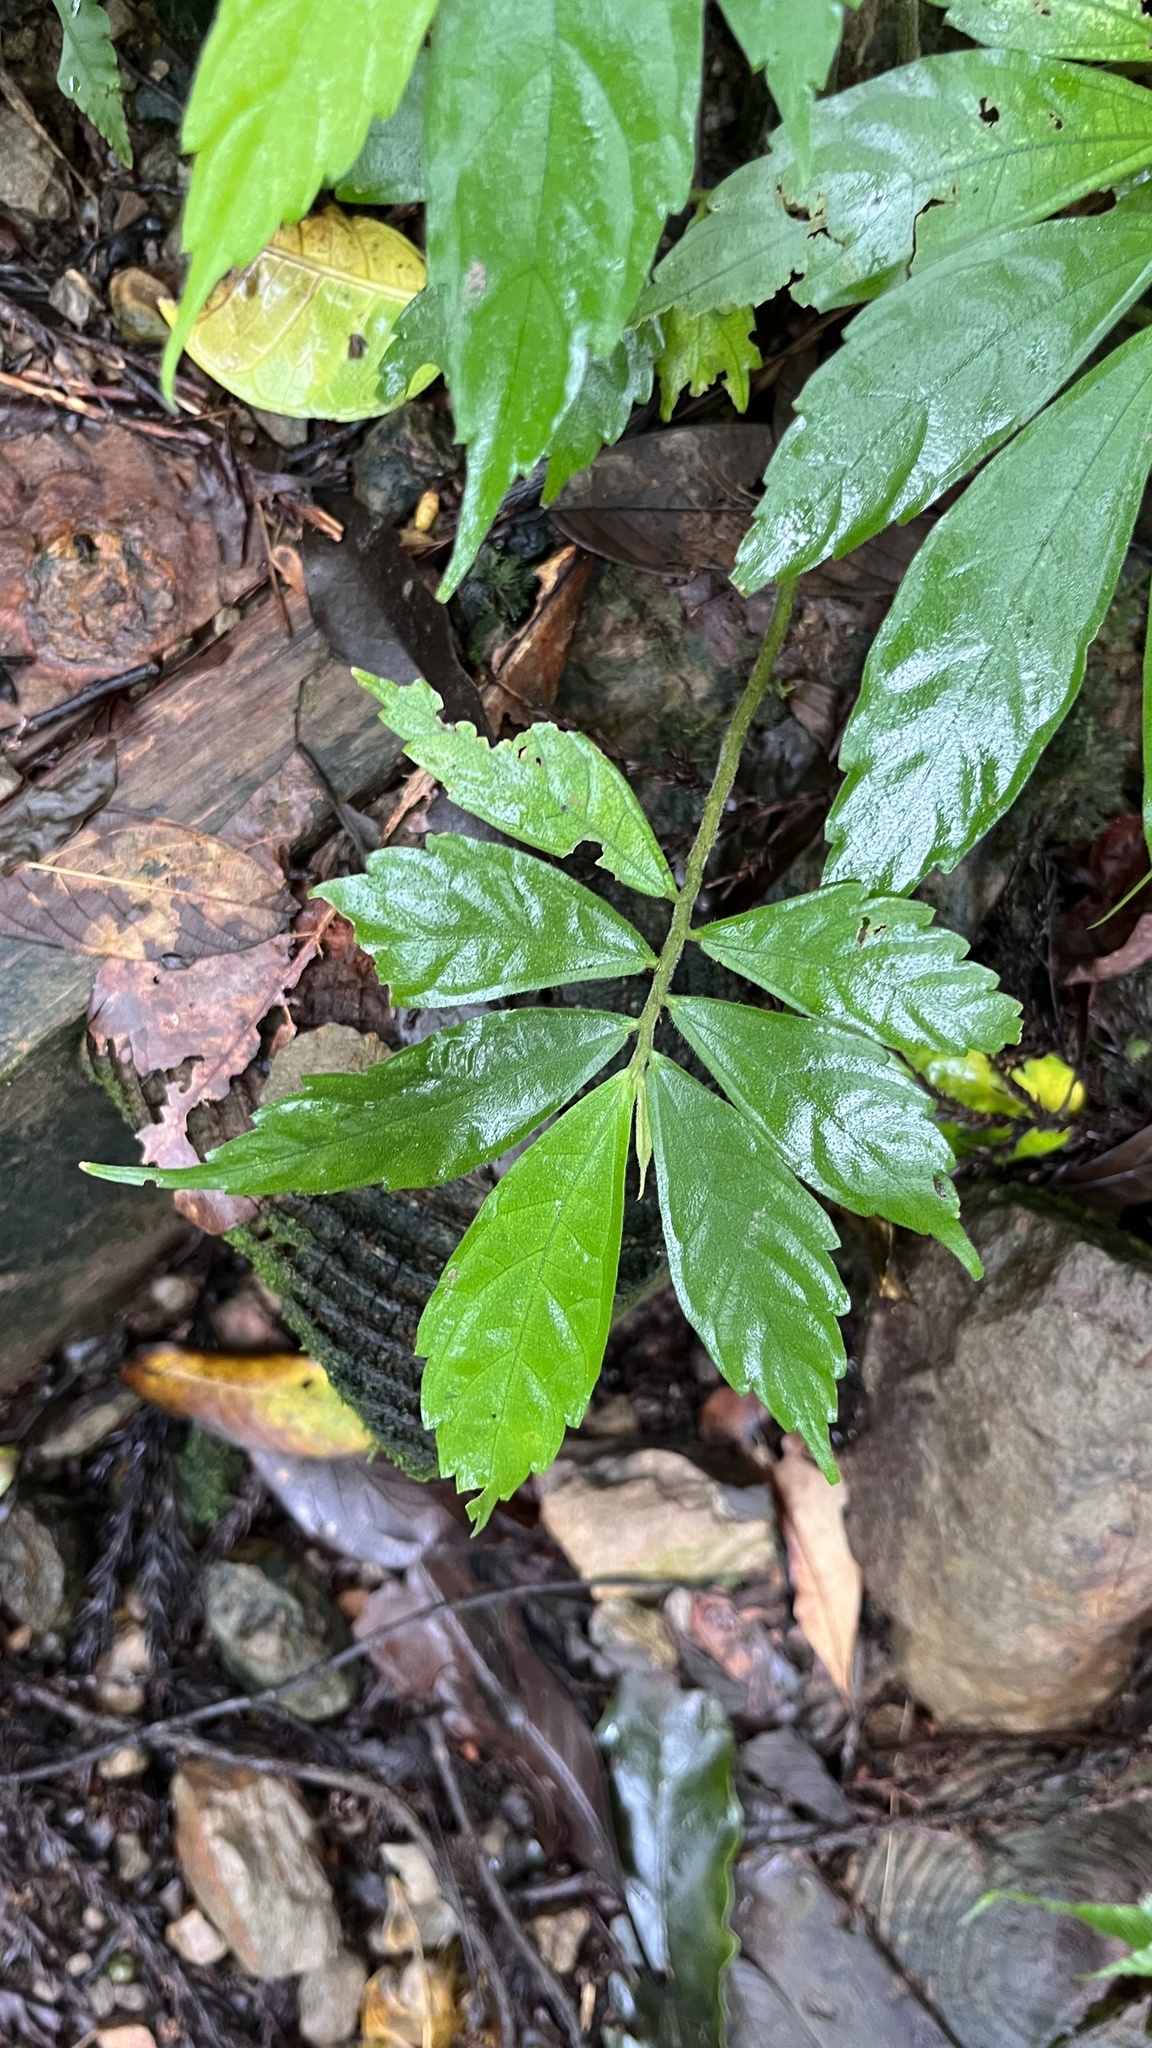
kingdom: Plantae
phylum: Tracheophyta
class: Magnoliopsida
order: Rosales
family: Urticaceae
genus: Elatostema
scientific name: Elatostema lineolatum
